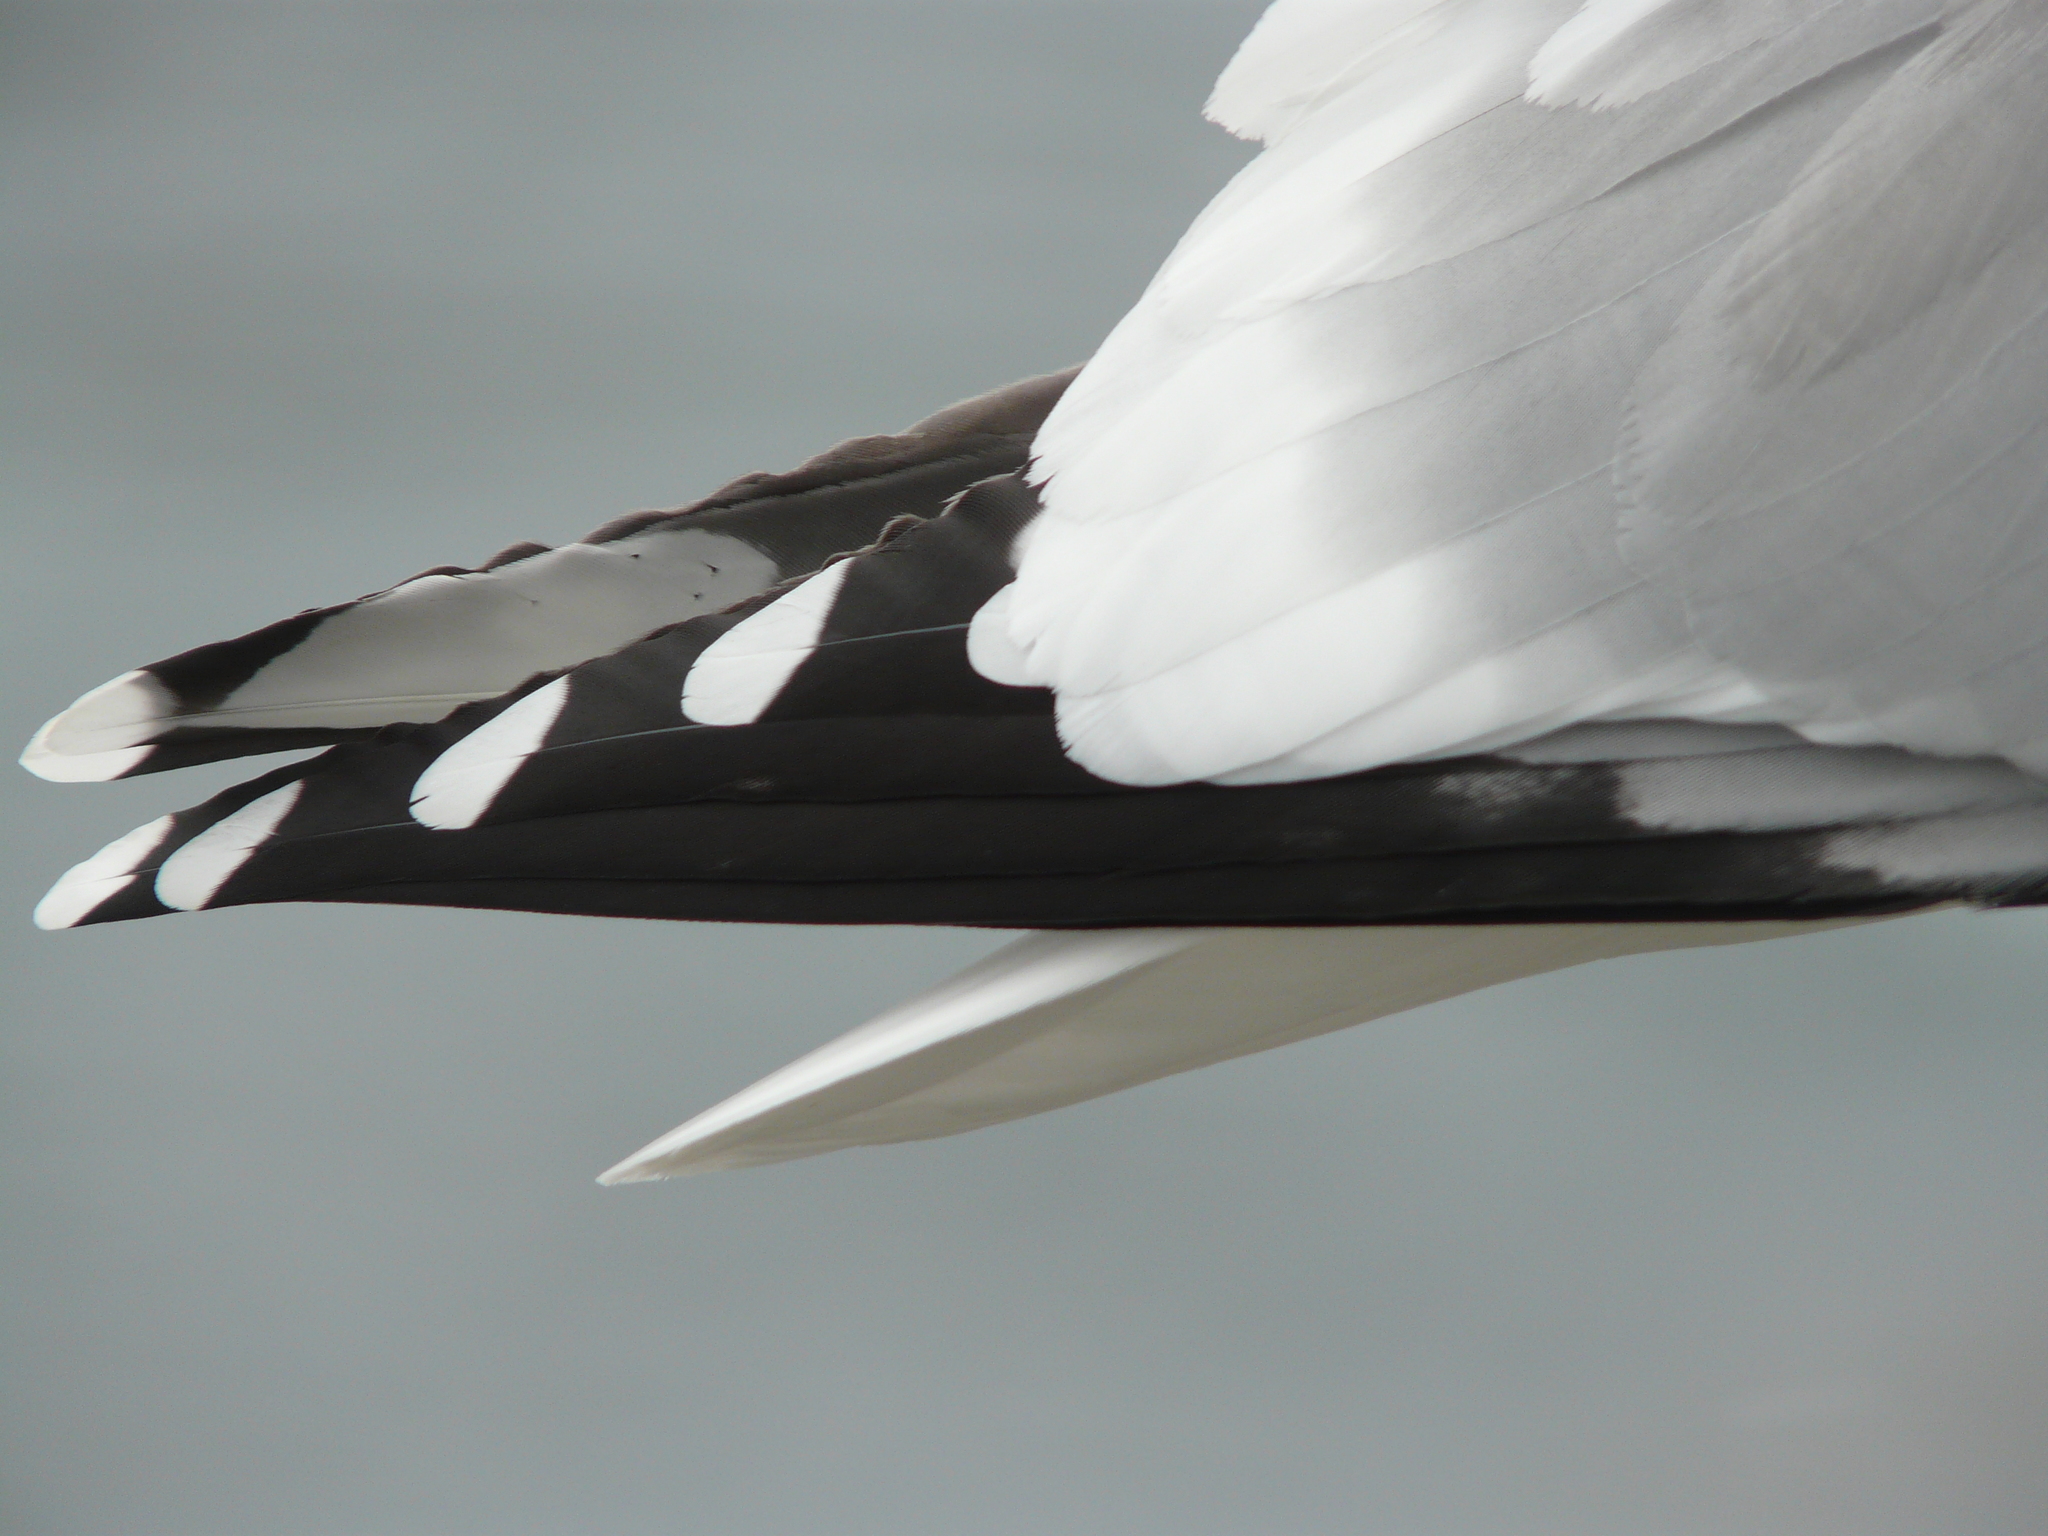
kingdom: Animalia
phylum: Chordata
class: Aves
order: Charadriiformes
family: Laridae
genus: Larus
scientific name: Larus smithsonianus
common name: American herring gull
